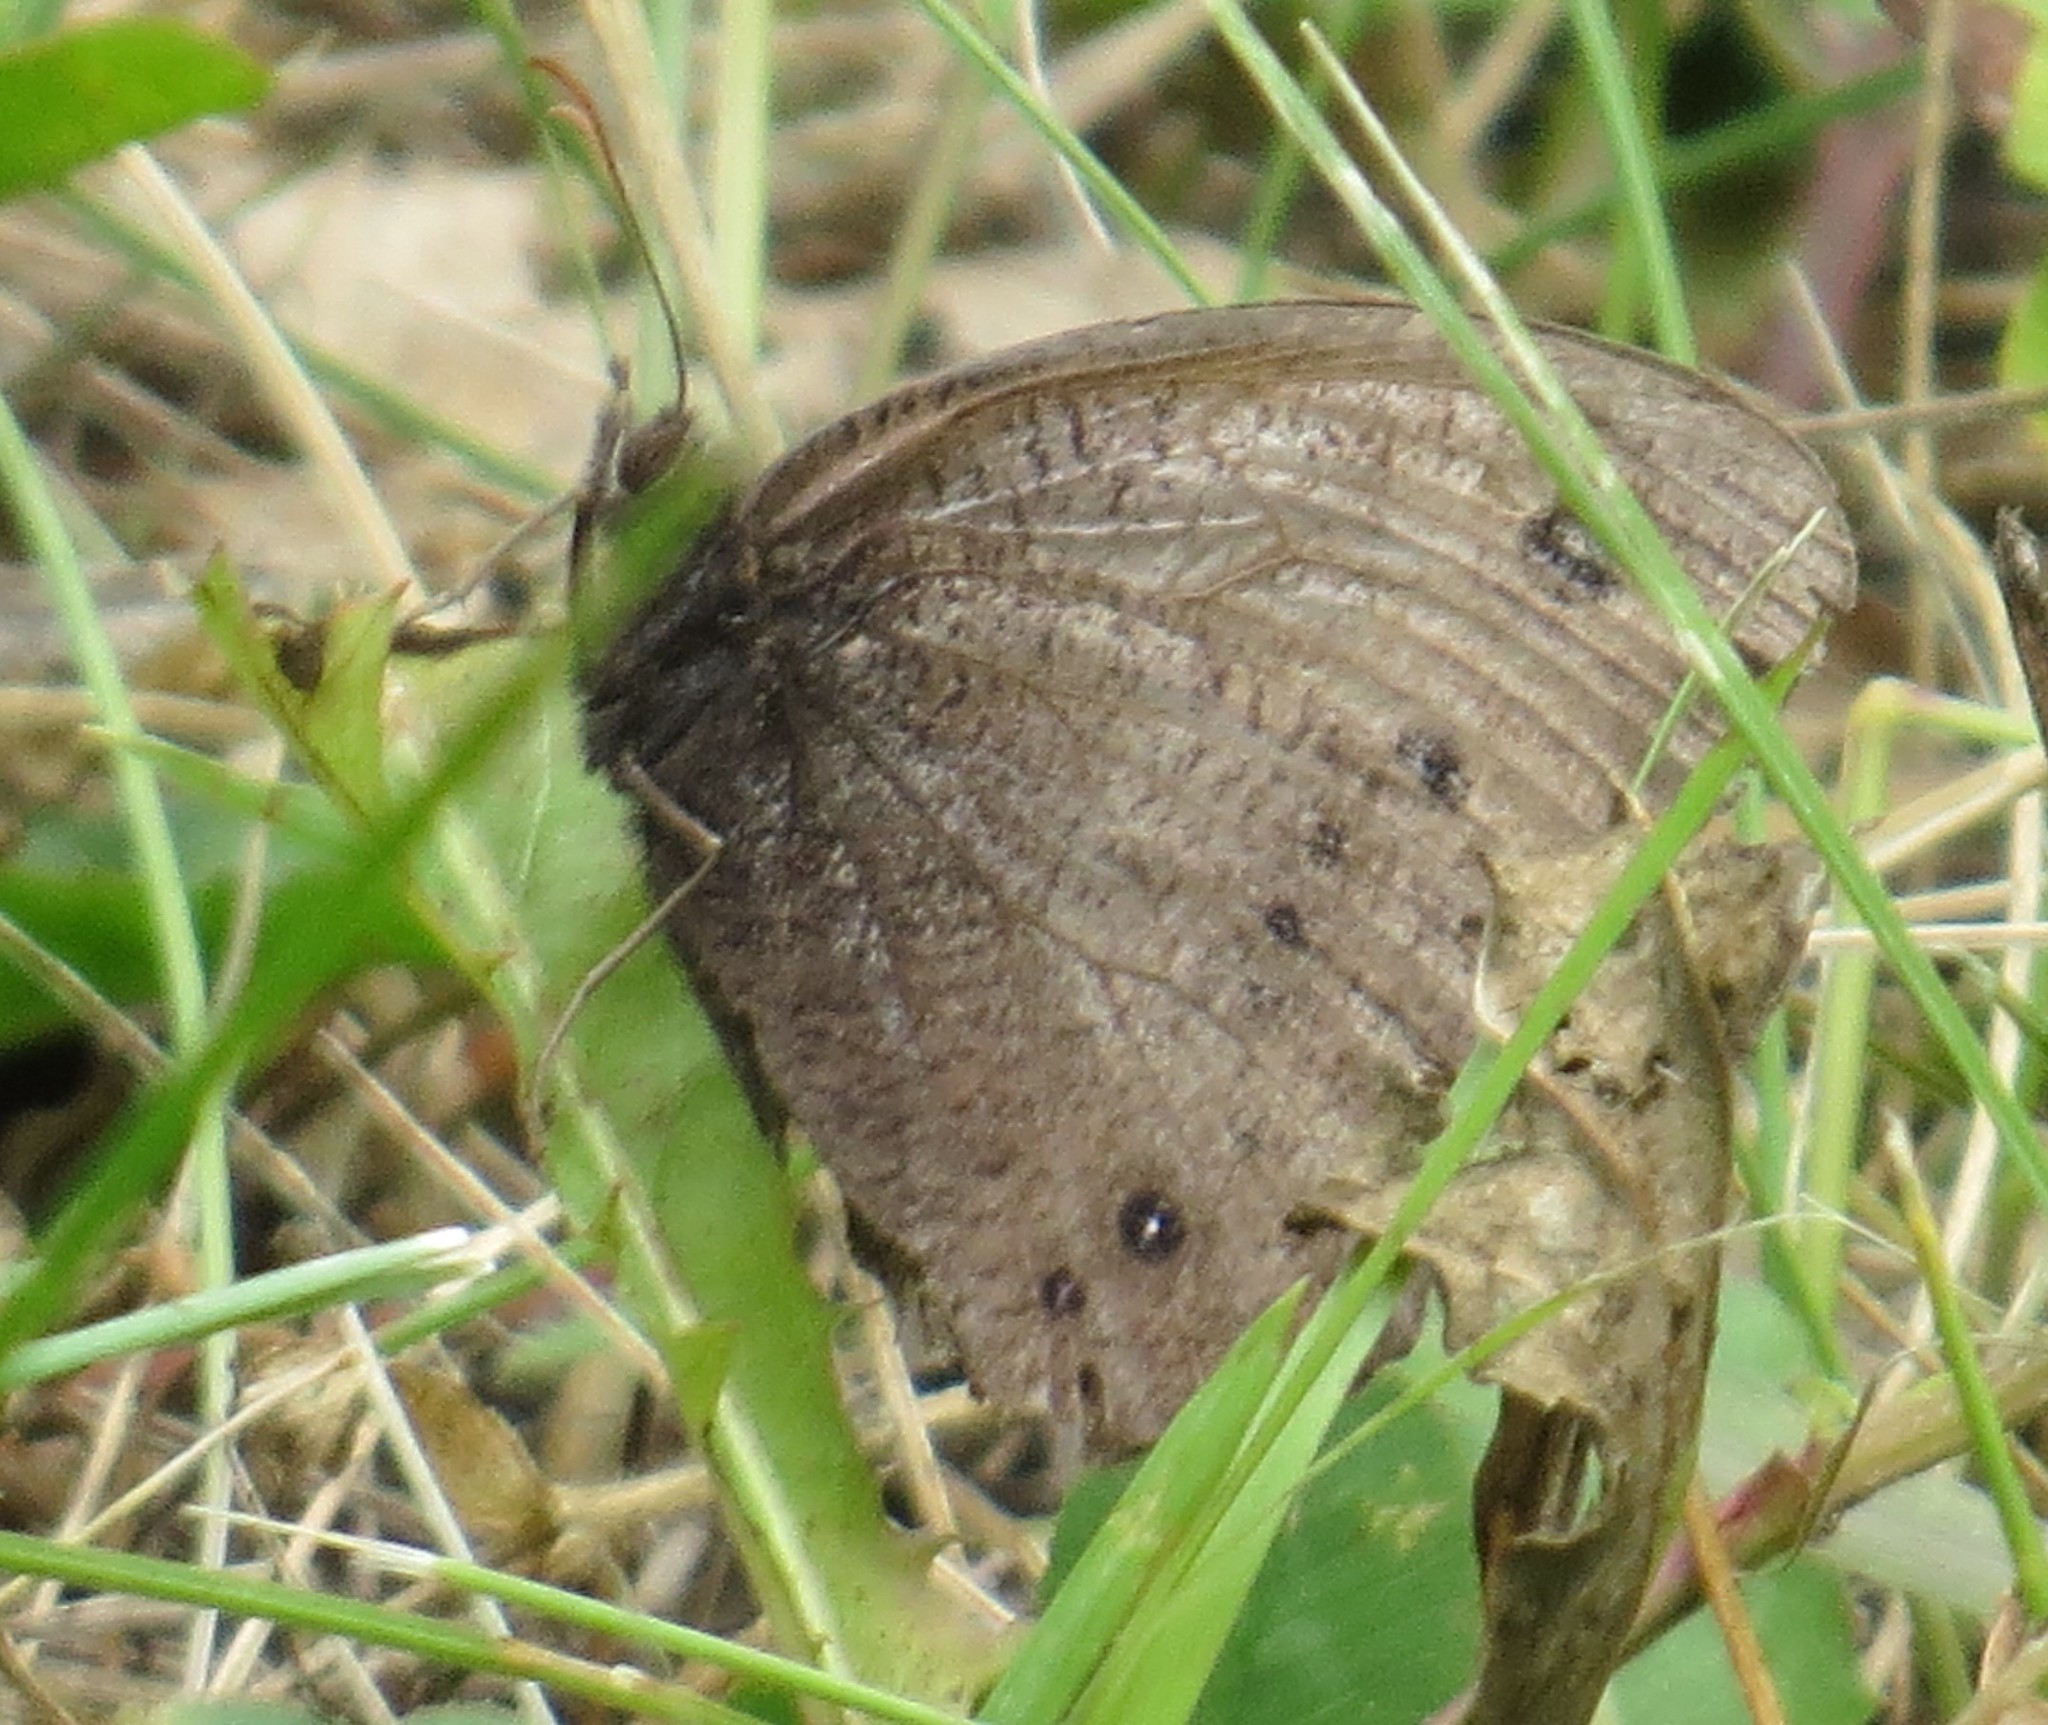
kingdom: Animalia
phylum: Arthropoda
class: Insecta
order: Lepidoptera
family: Nymphalidae
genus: Cercyonis
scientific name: Cercyonis pegala
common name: Common wood-nymph
